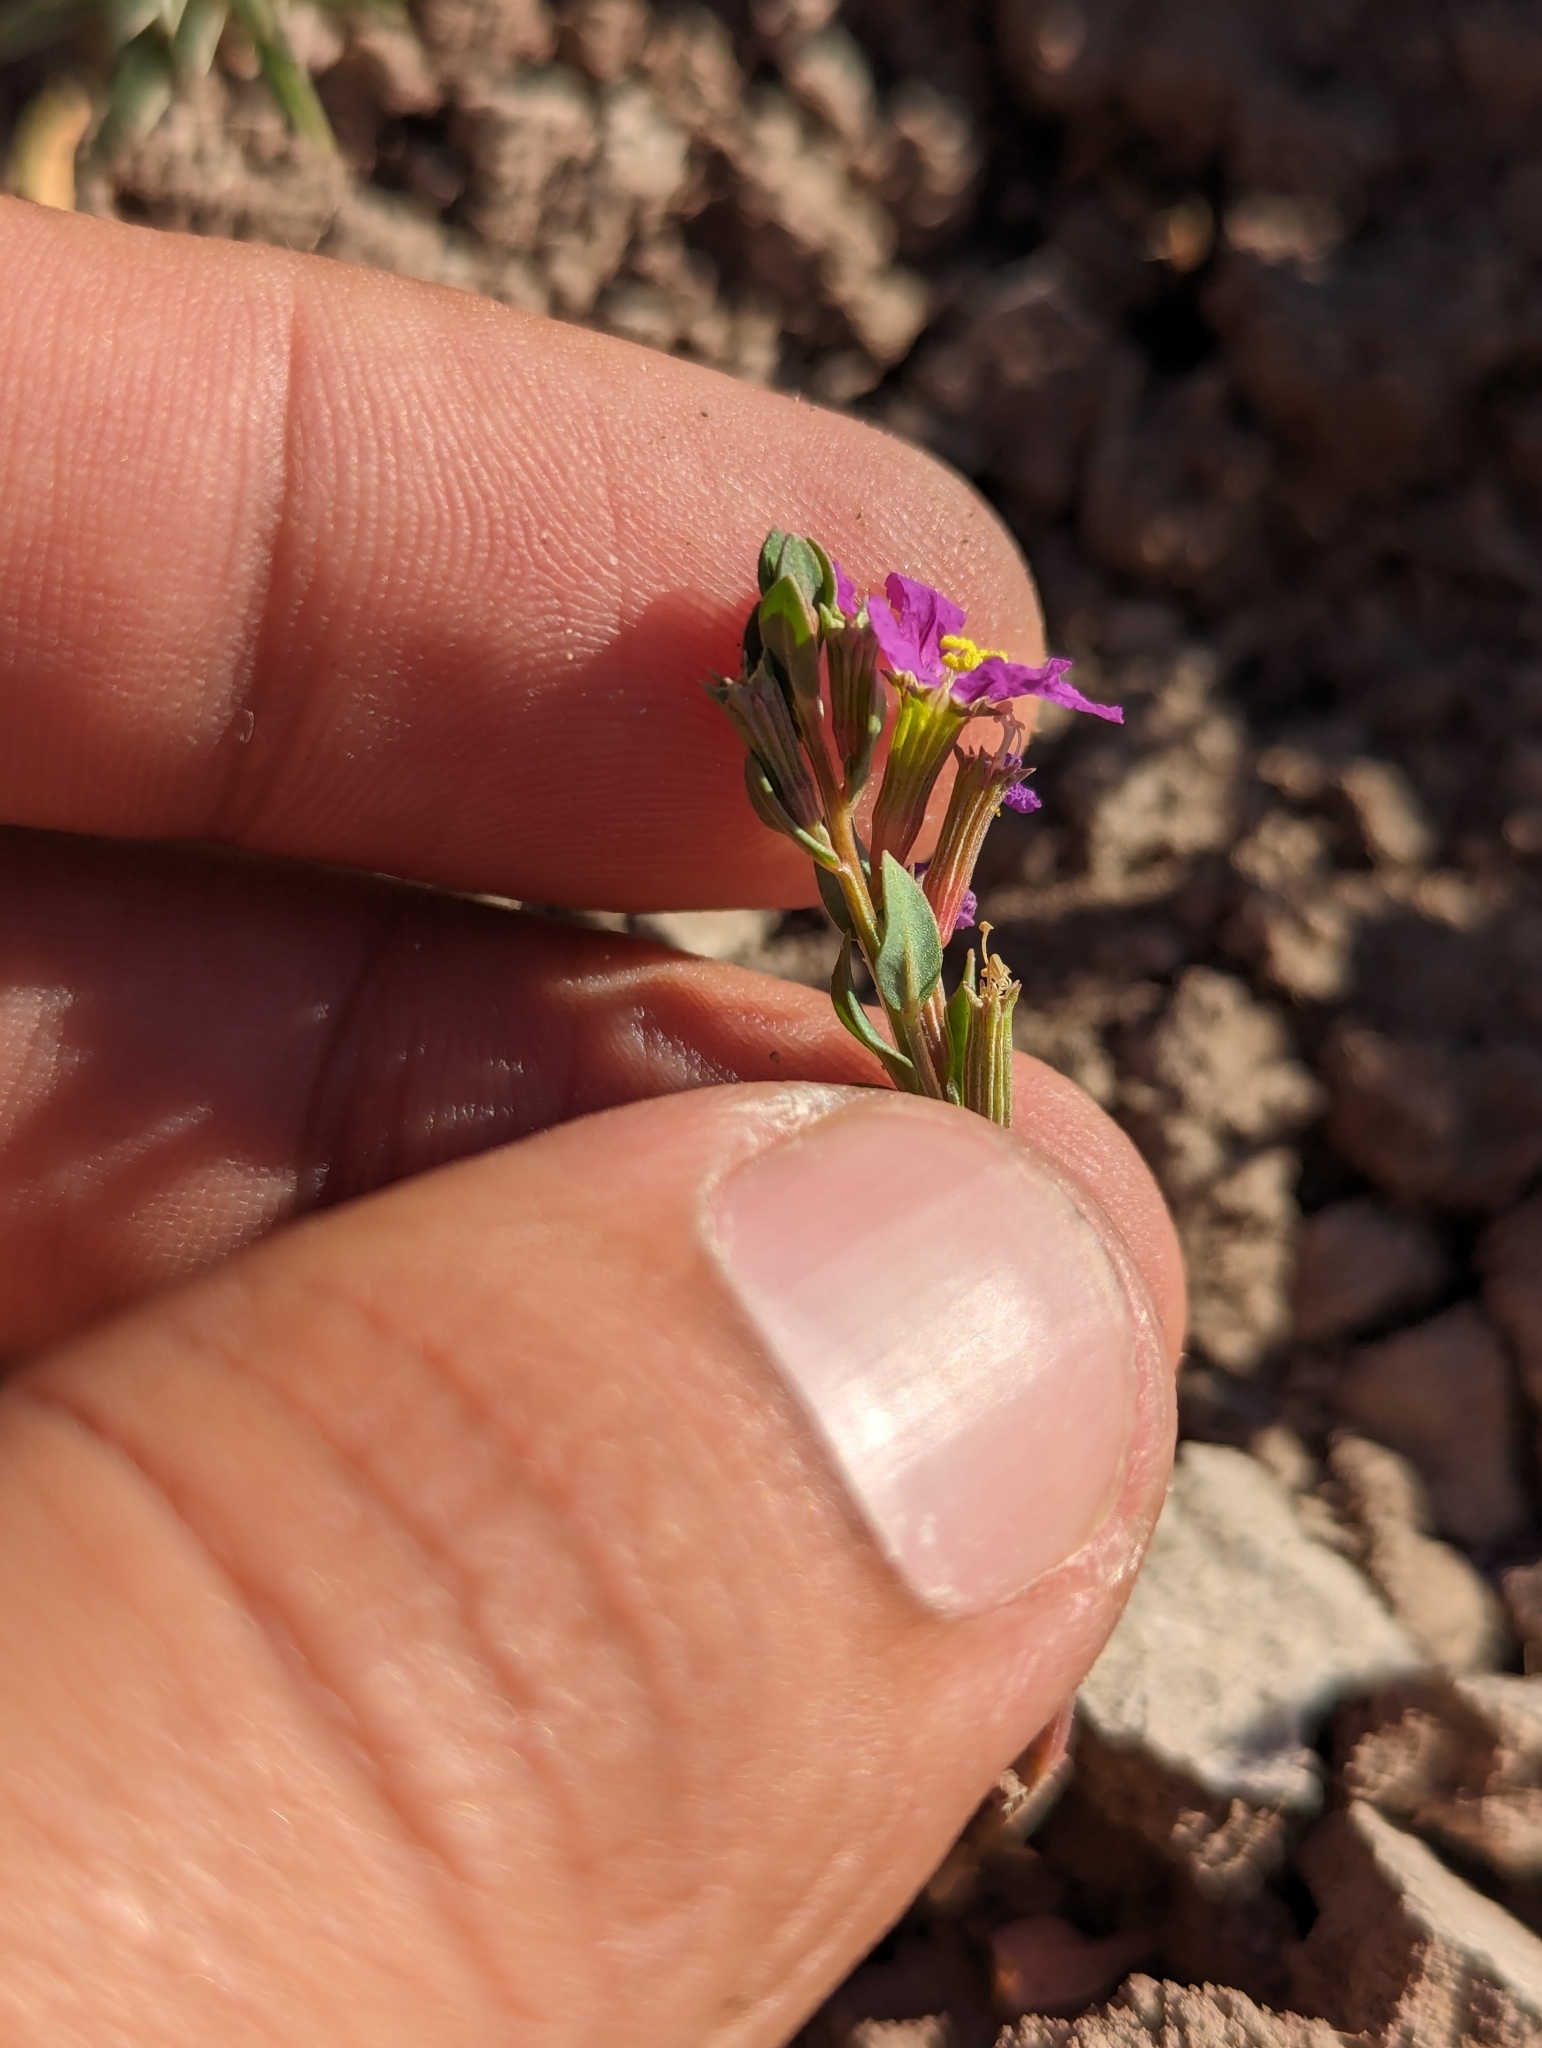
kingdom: Plantae
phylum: Tracheophyta
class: Magnoliopsida
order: Myrtales
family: Lythraceae
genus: Lythrum
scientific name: Lythrum bryantii
